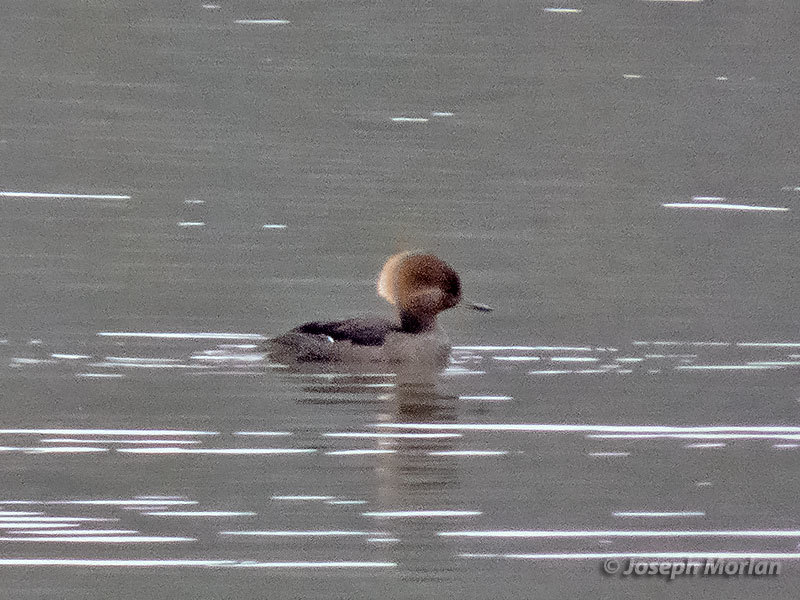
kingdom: Animalia
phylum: Chordata
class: Aves
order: Anseriformes
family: Anatidae
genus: Lophodytes
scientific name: Lophodytes cucullatus
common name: Hooded merganser
